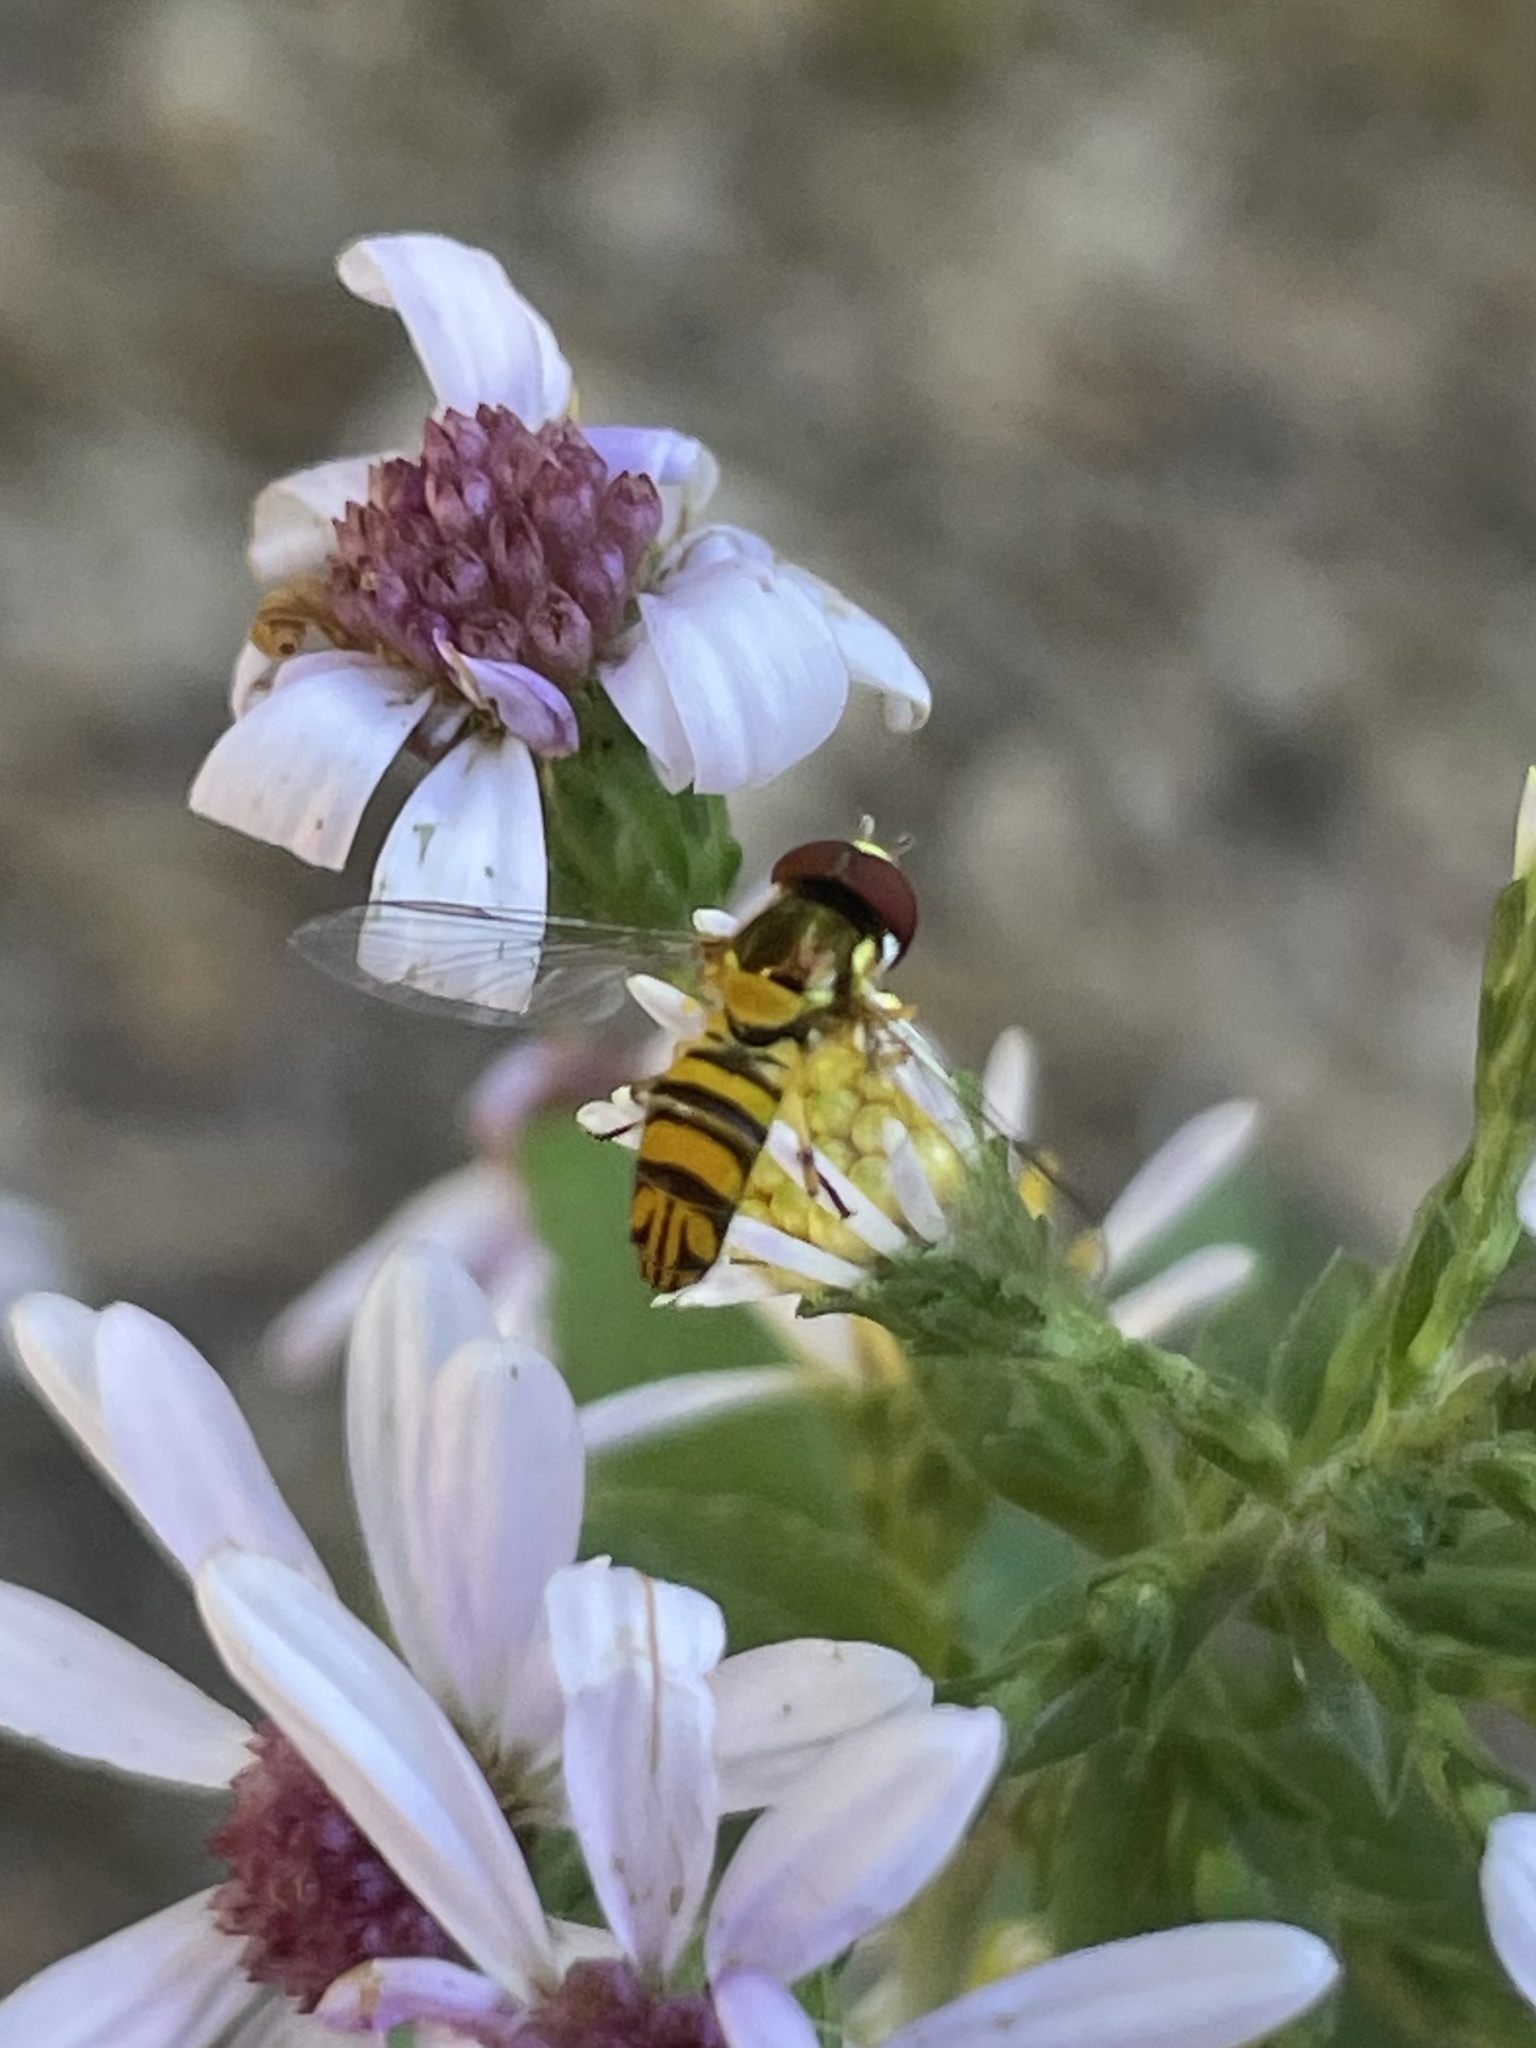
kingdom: Animalia
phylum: Arthropoda
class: Insecta
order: Diptera
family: Syrphidae
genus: Allograpta
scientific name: Allograpta obliqua
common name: Common oblique syrphid
